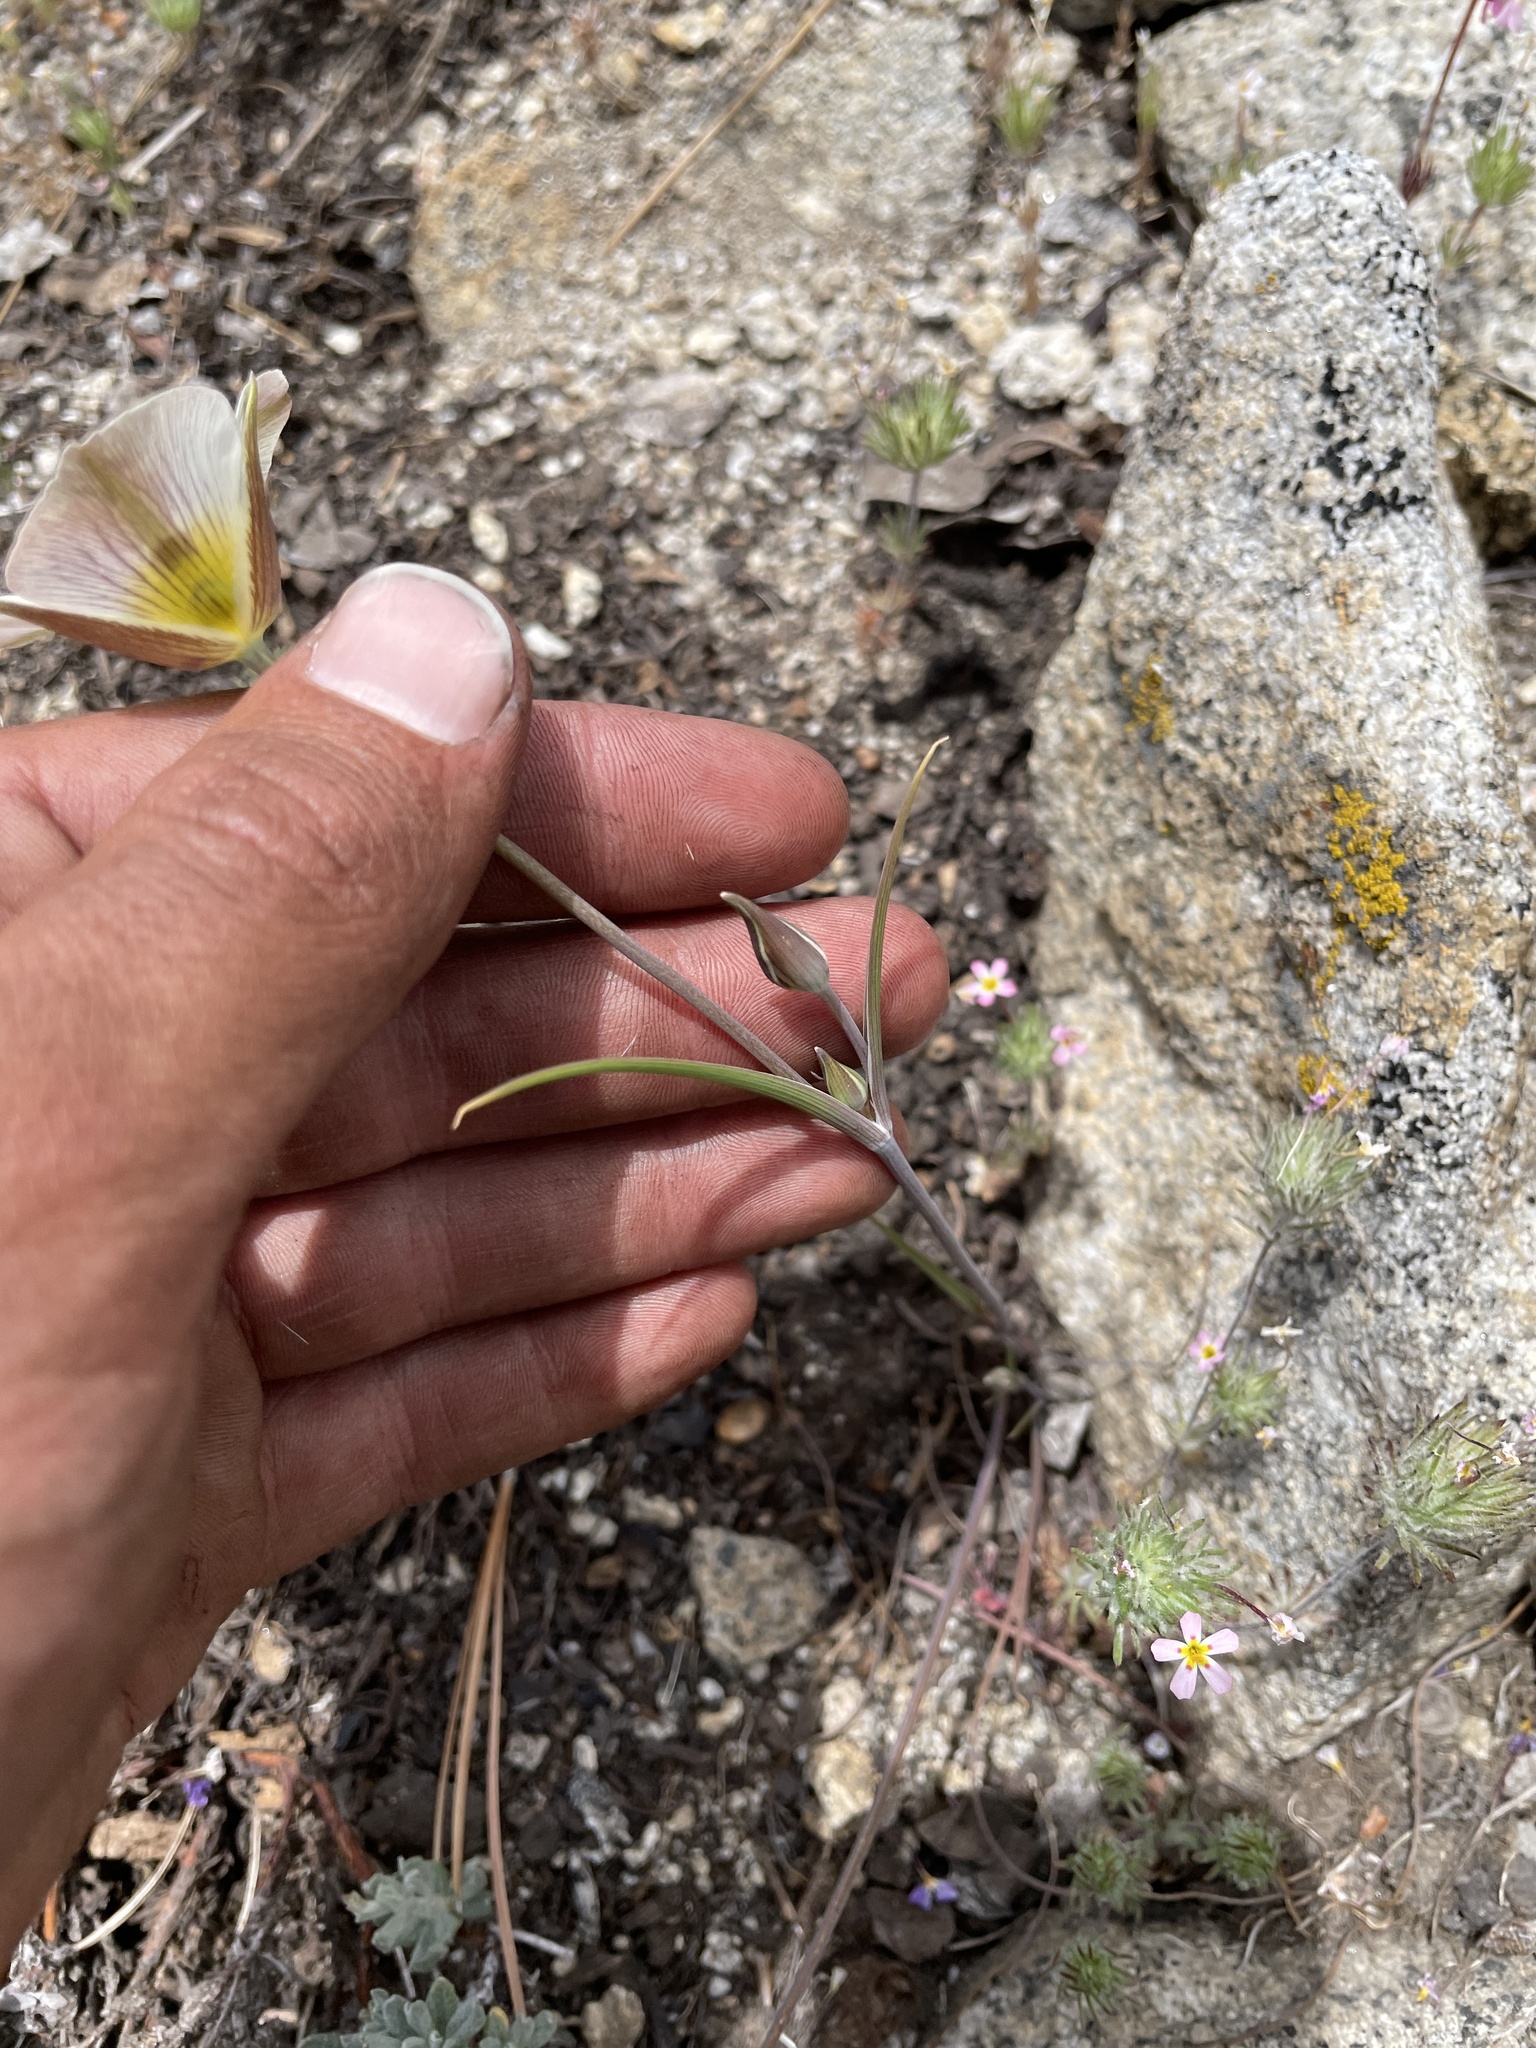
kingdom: Plantae
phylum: Tracheophyta
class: Liliopsida
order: Liliales
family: Liliaceae
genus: Calochortus
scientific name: Calochortus leichtlinii
